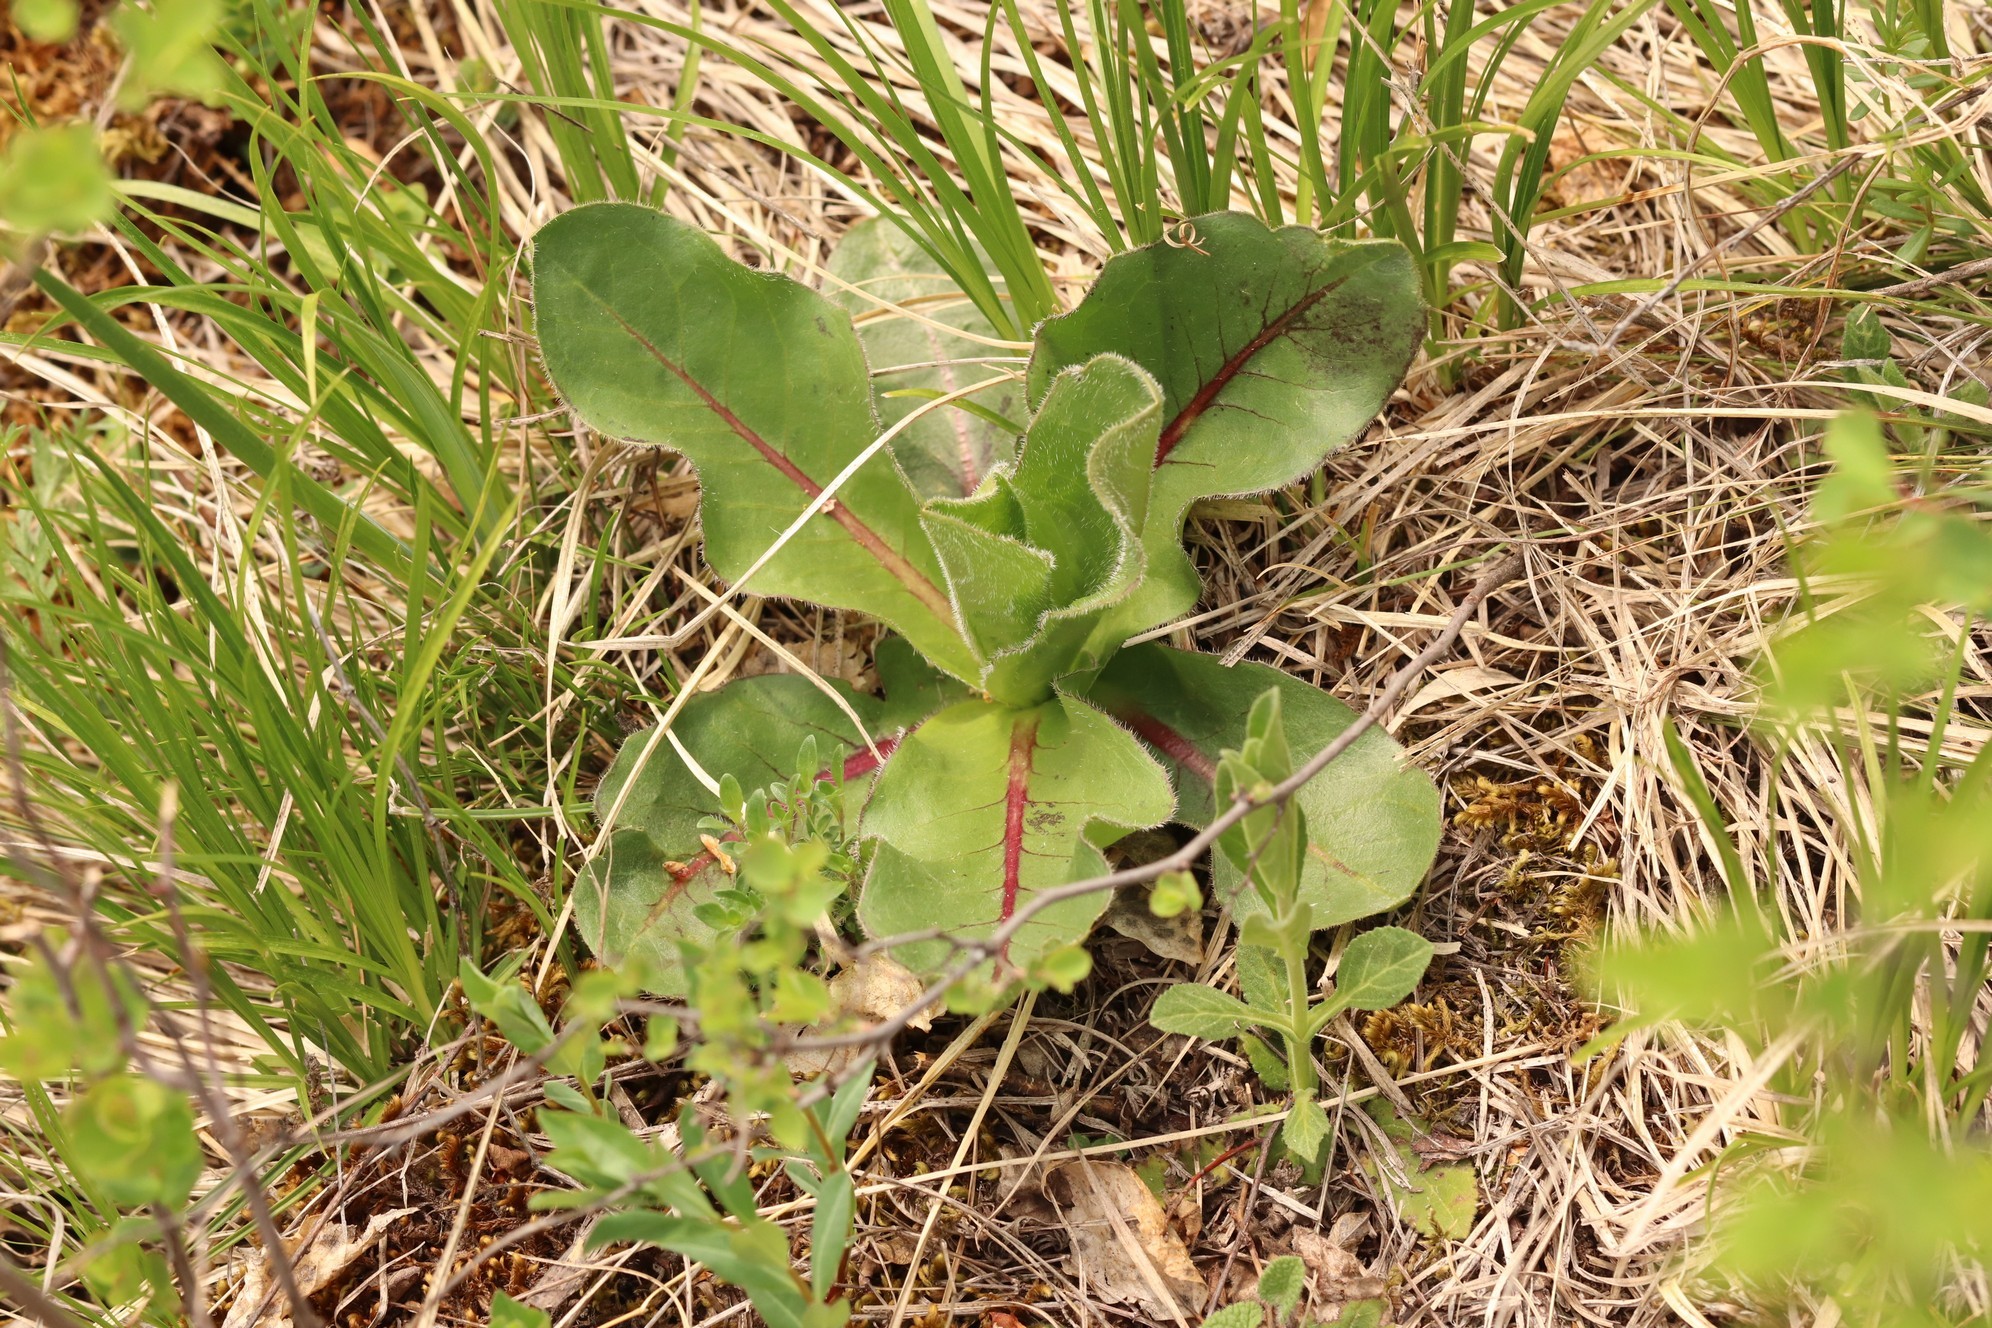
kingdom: Plantae
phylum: Tracheophyta
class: Magnoliopsida
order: Asterales
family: Asteraceae
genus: Trommsdorffia
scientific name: Trommsdorffia maculata
